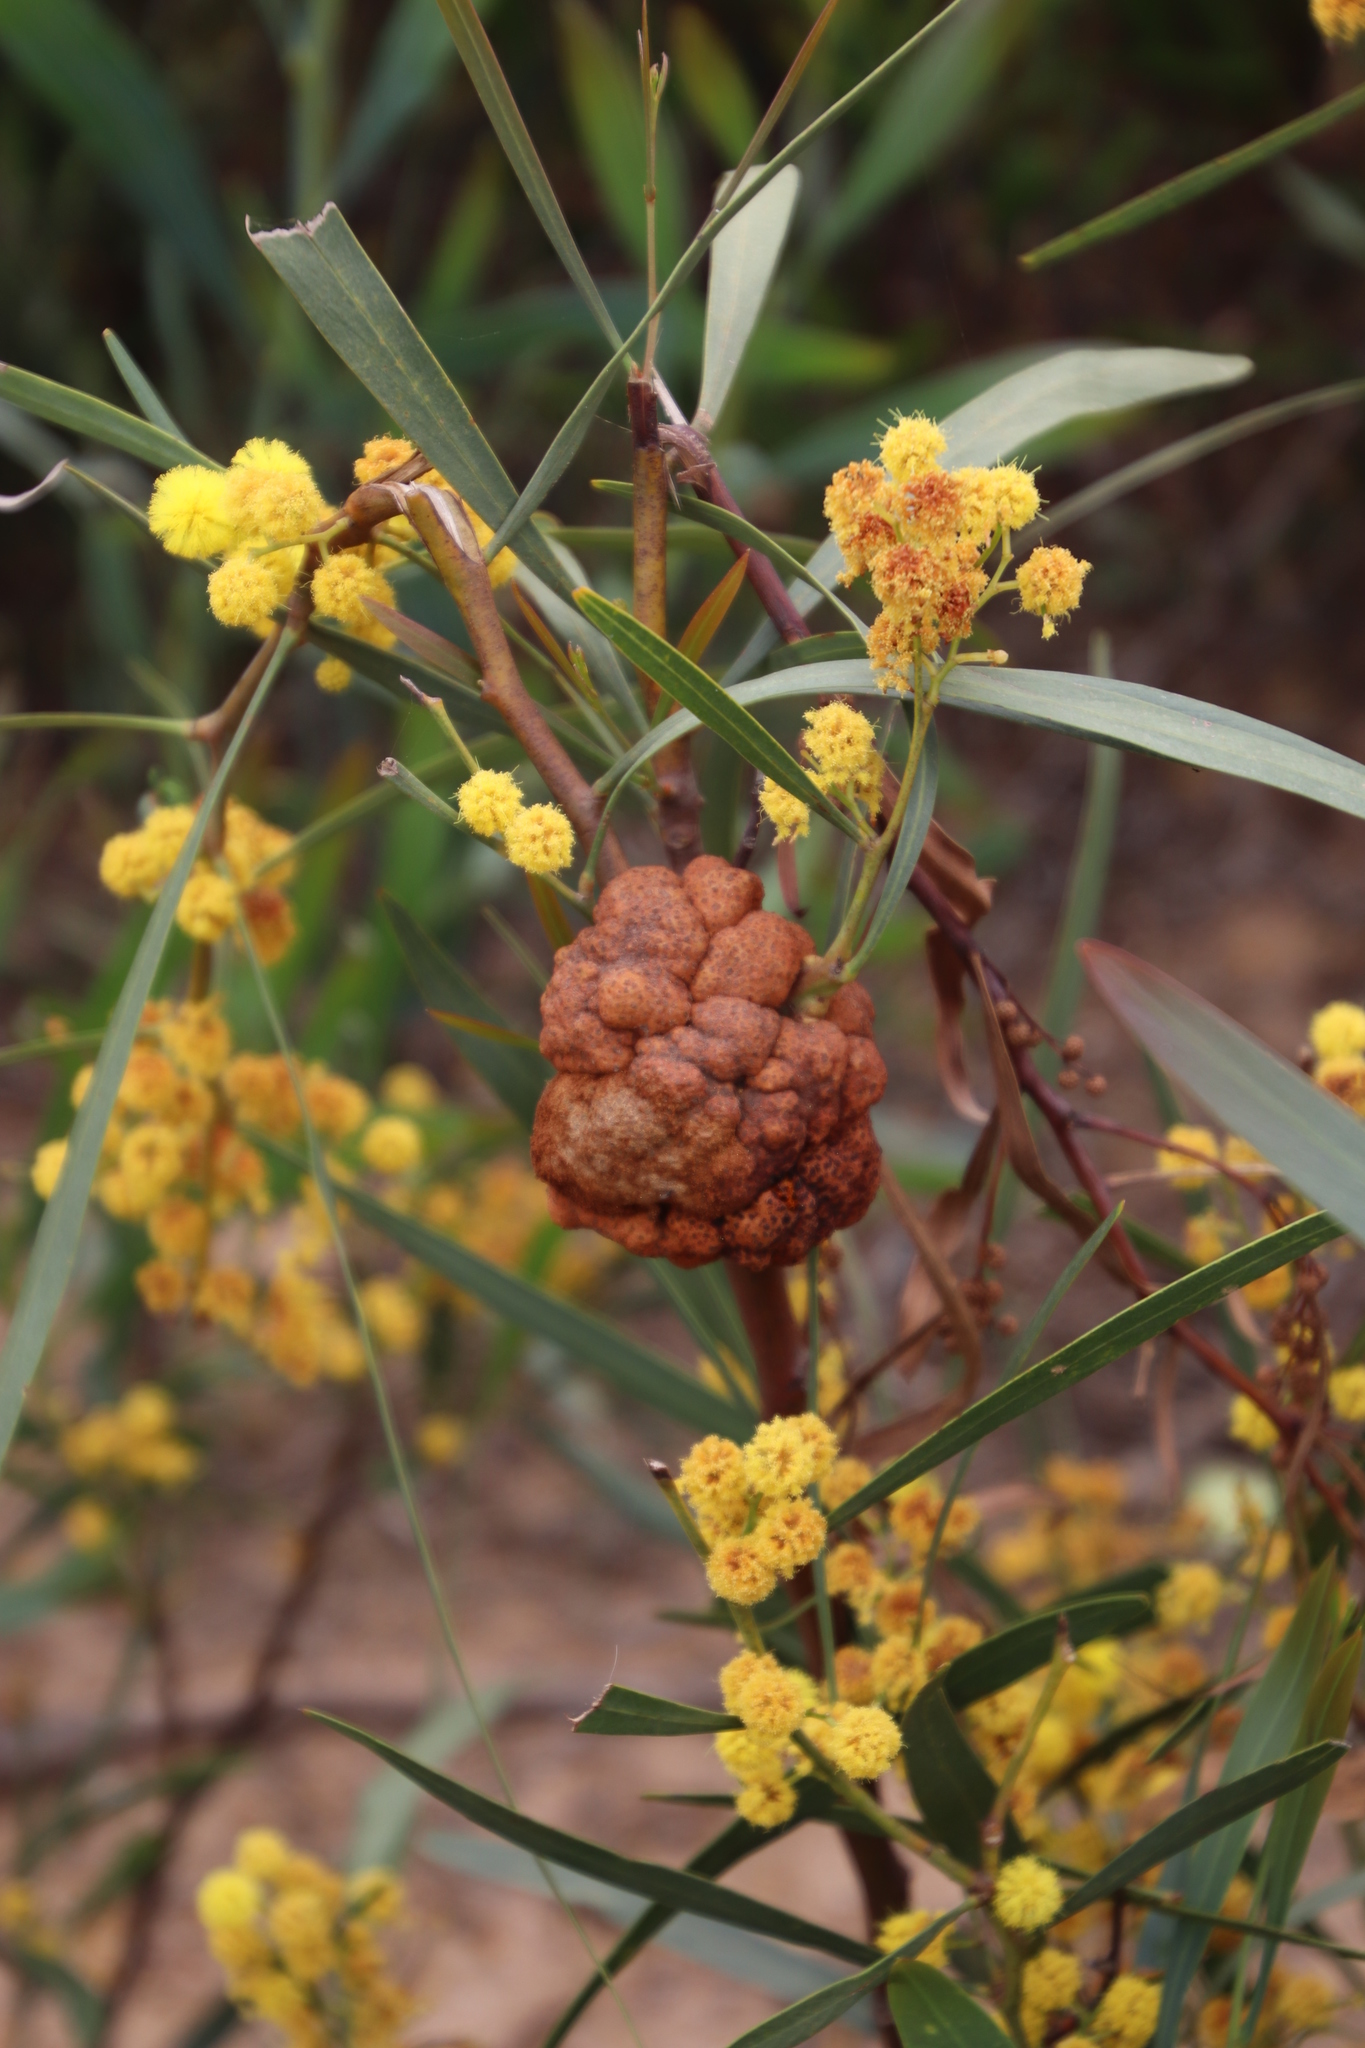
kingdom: Fungi
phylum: Basidiomycota
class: Pucciniomycetes
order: Pucciniales
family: Uromycladiaceae
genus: Uromycladium
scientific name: Uromycladium morrisii
